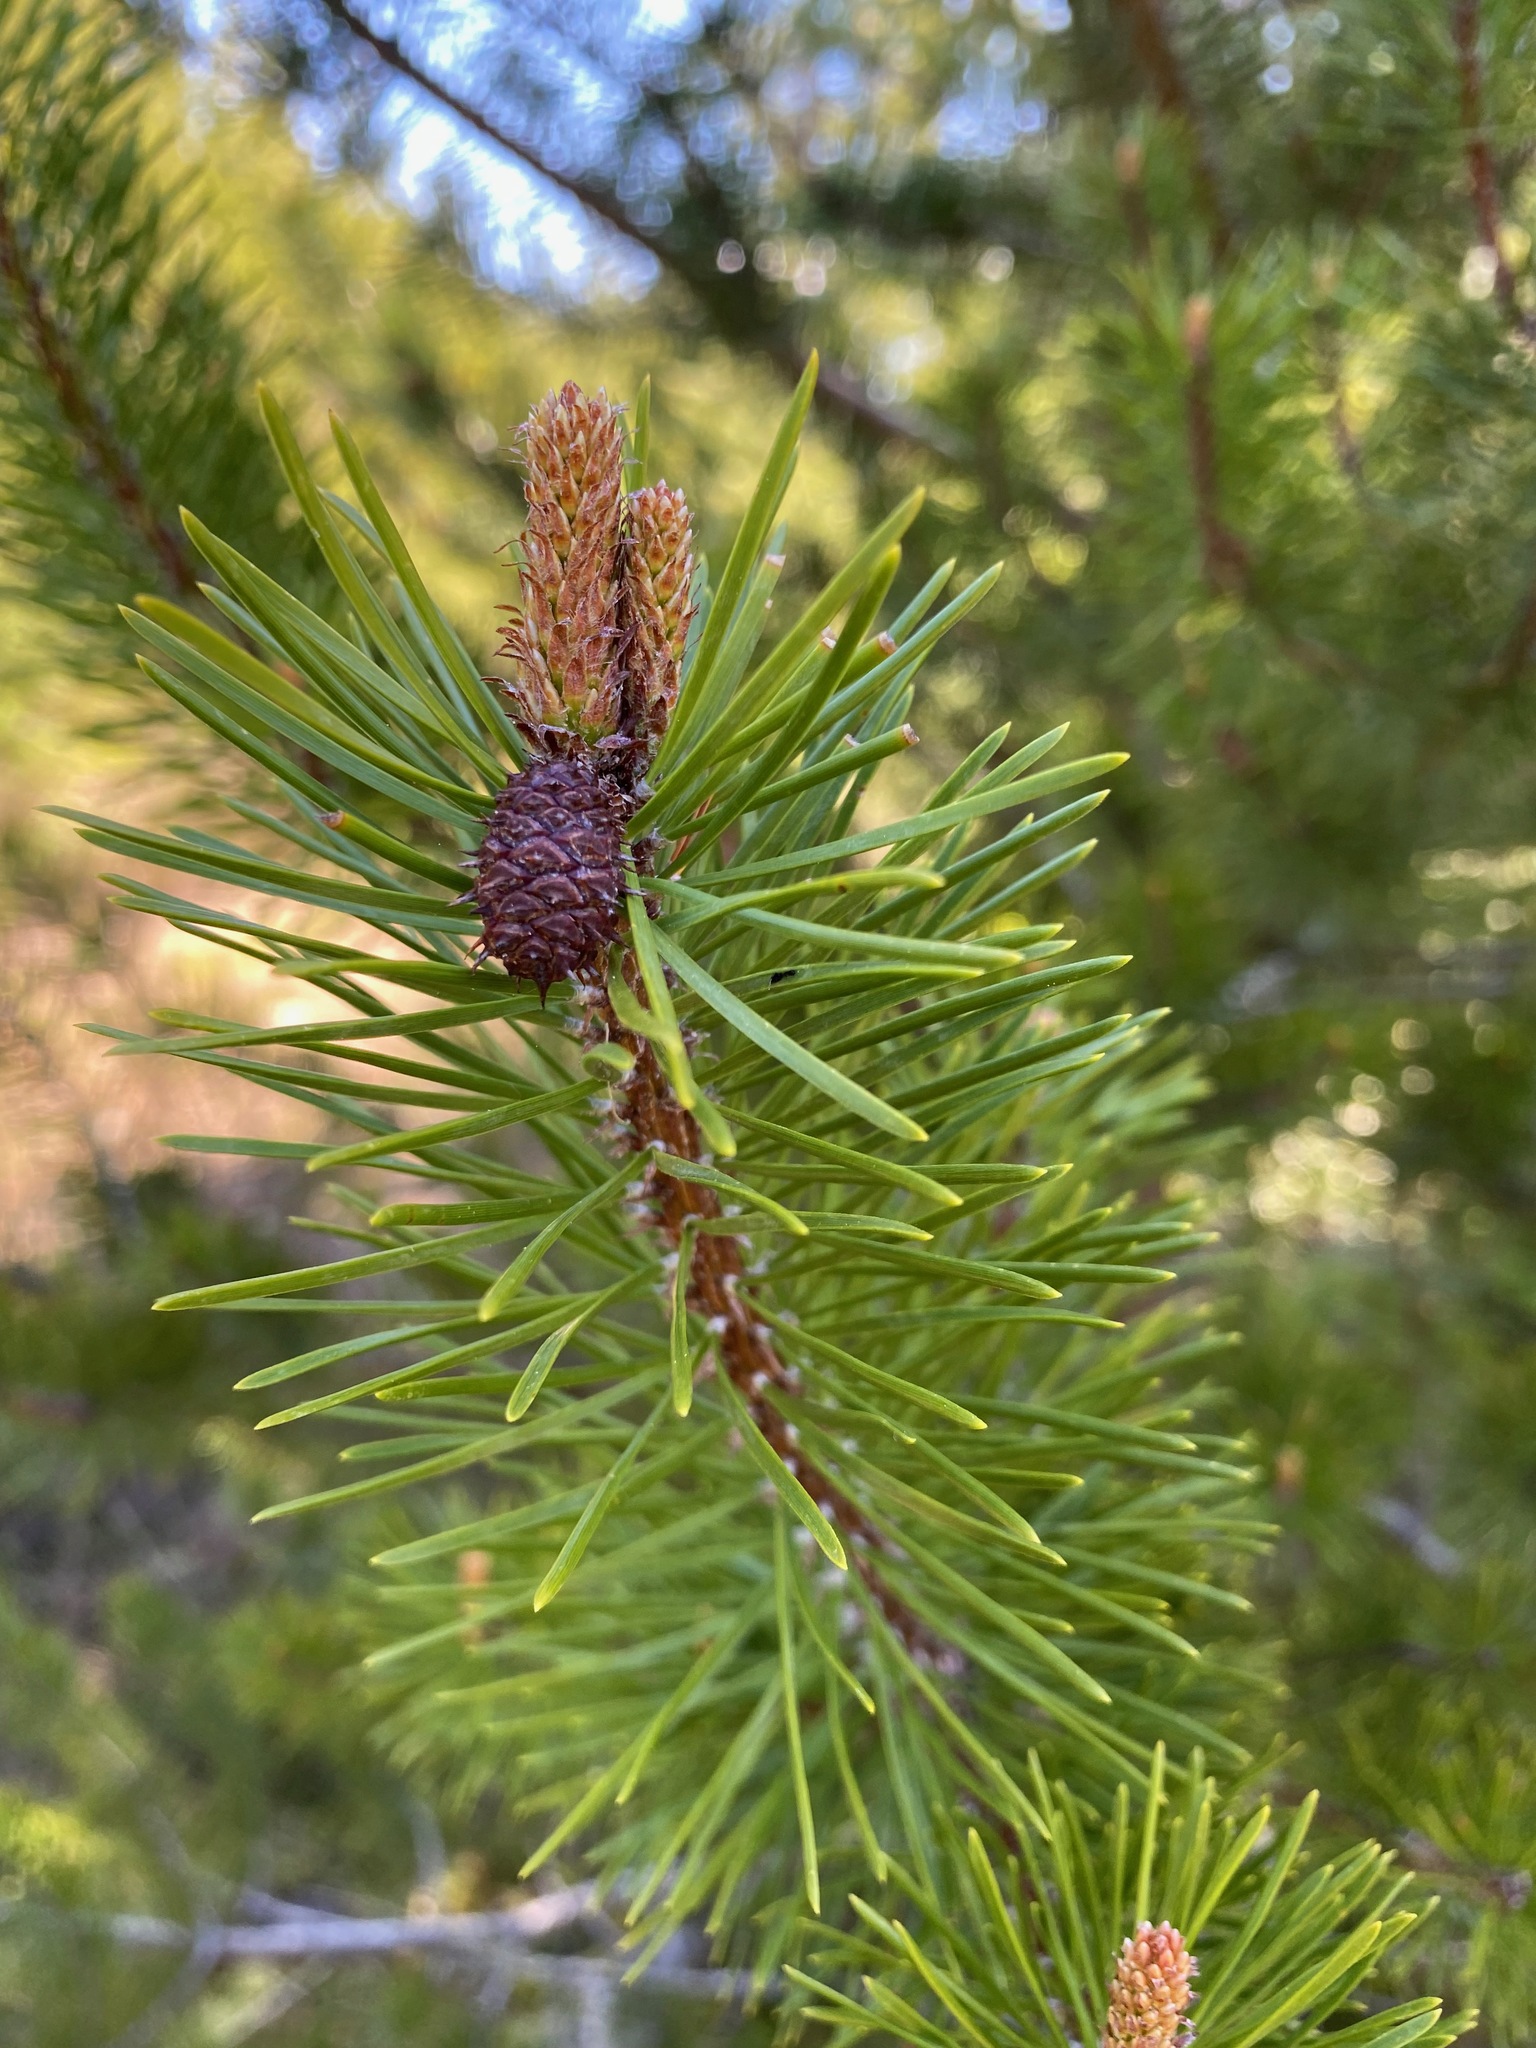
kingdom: Plantae
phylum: Tracheophyta
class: Pinopsida
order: Pinales
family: Pinaceae
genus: Pinus
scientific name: Pinus contorta
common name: Lodgepole pine
